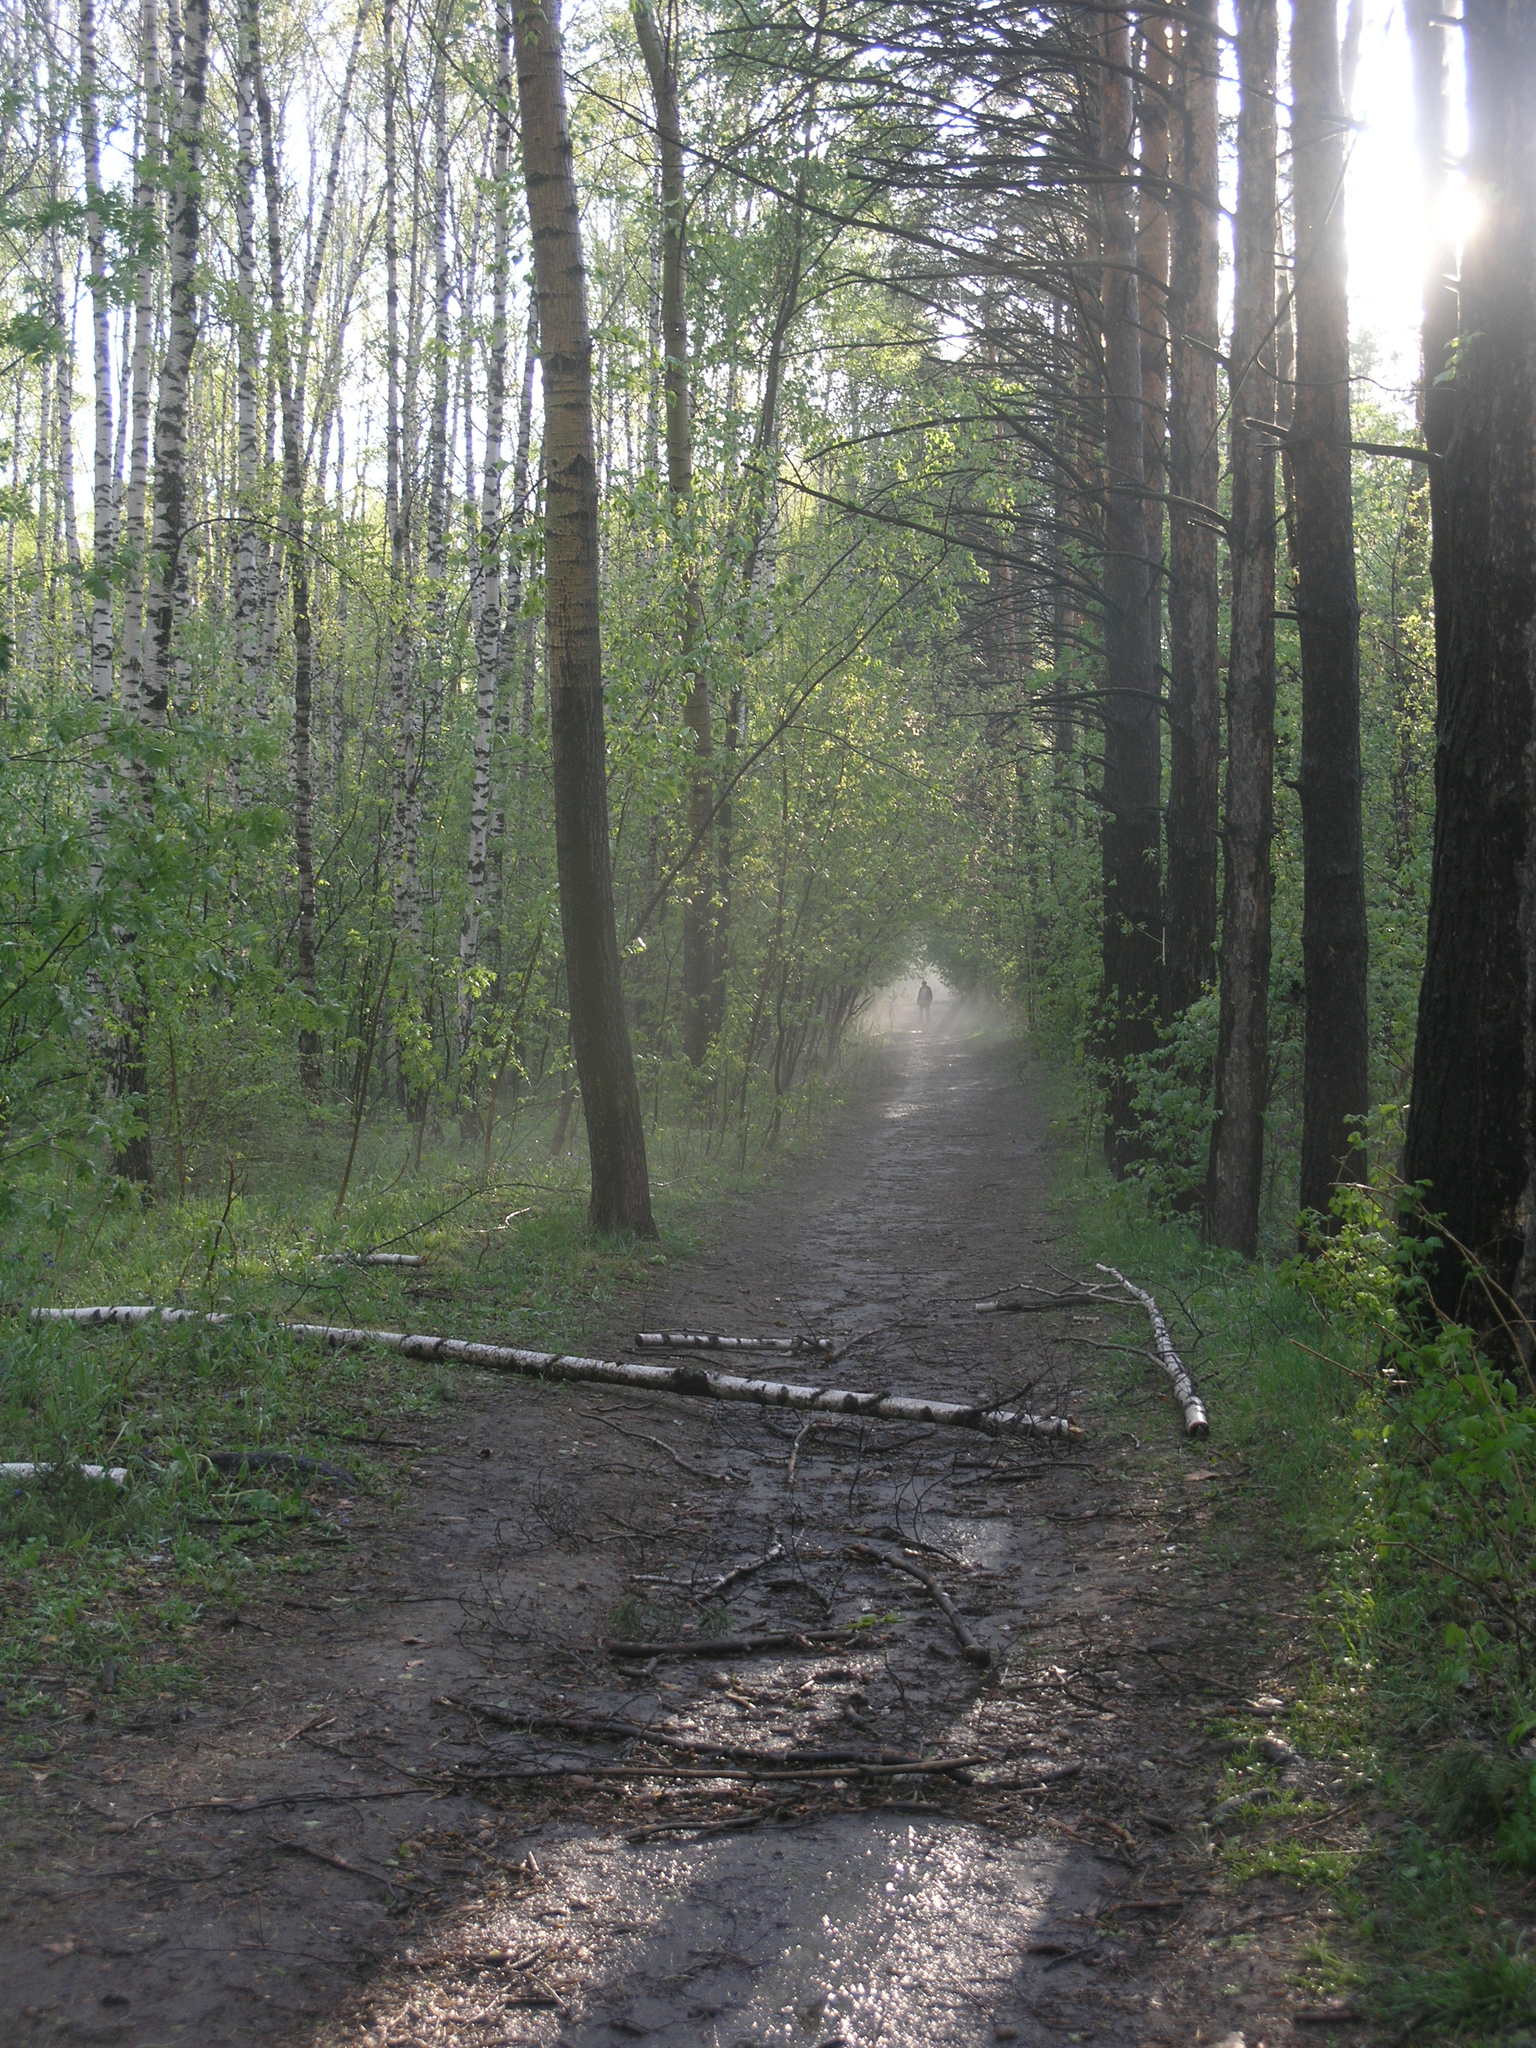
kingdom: Plantae
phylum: Tracheophyta
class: Magnoliopsida
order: Fagales
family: Betulaceae
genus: Betula
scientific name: Betula pendula
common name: Silver birch
